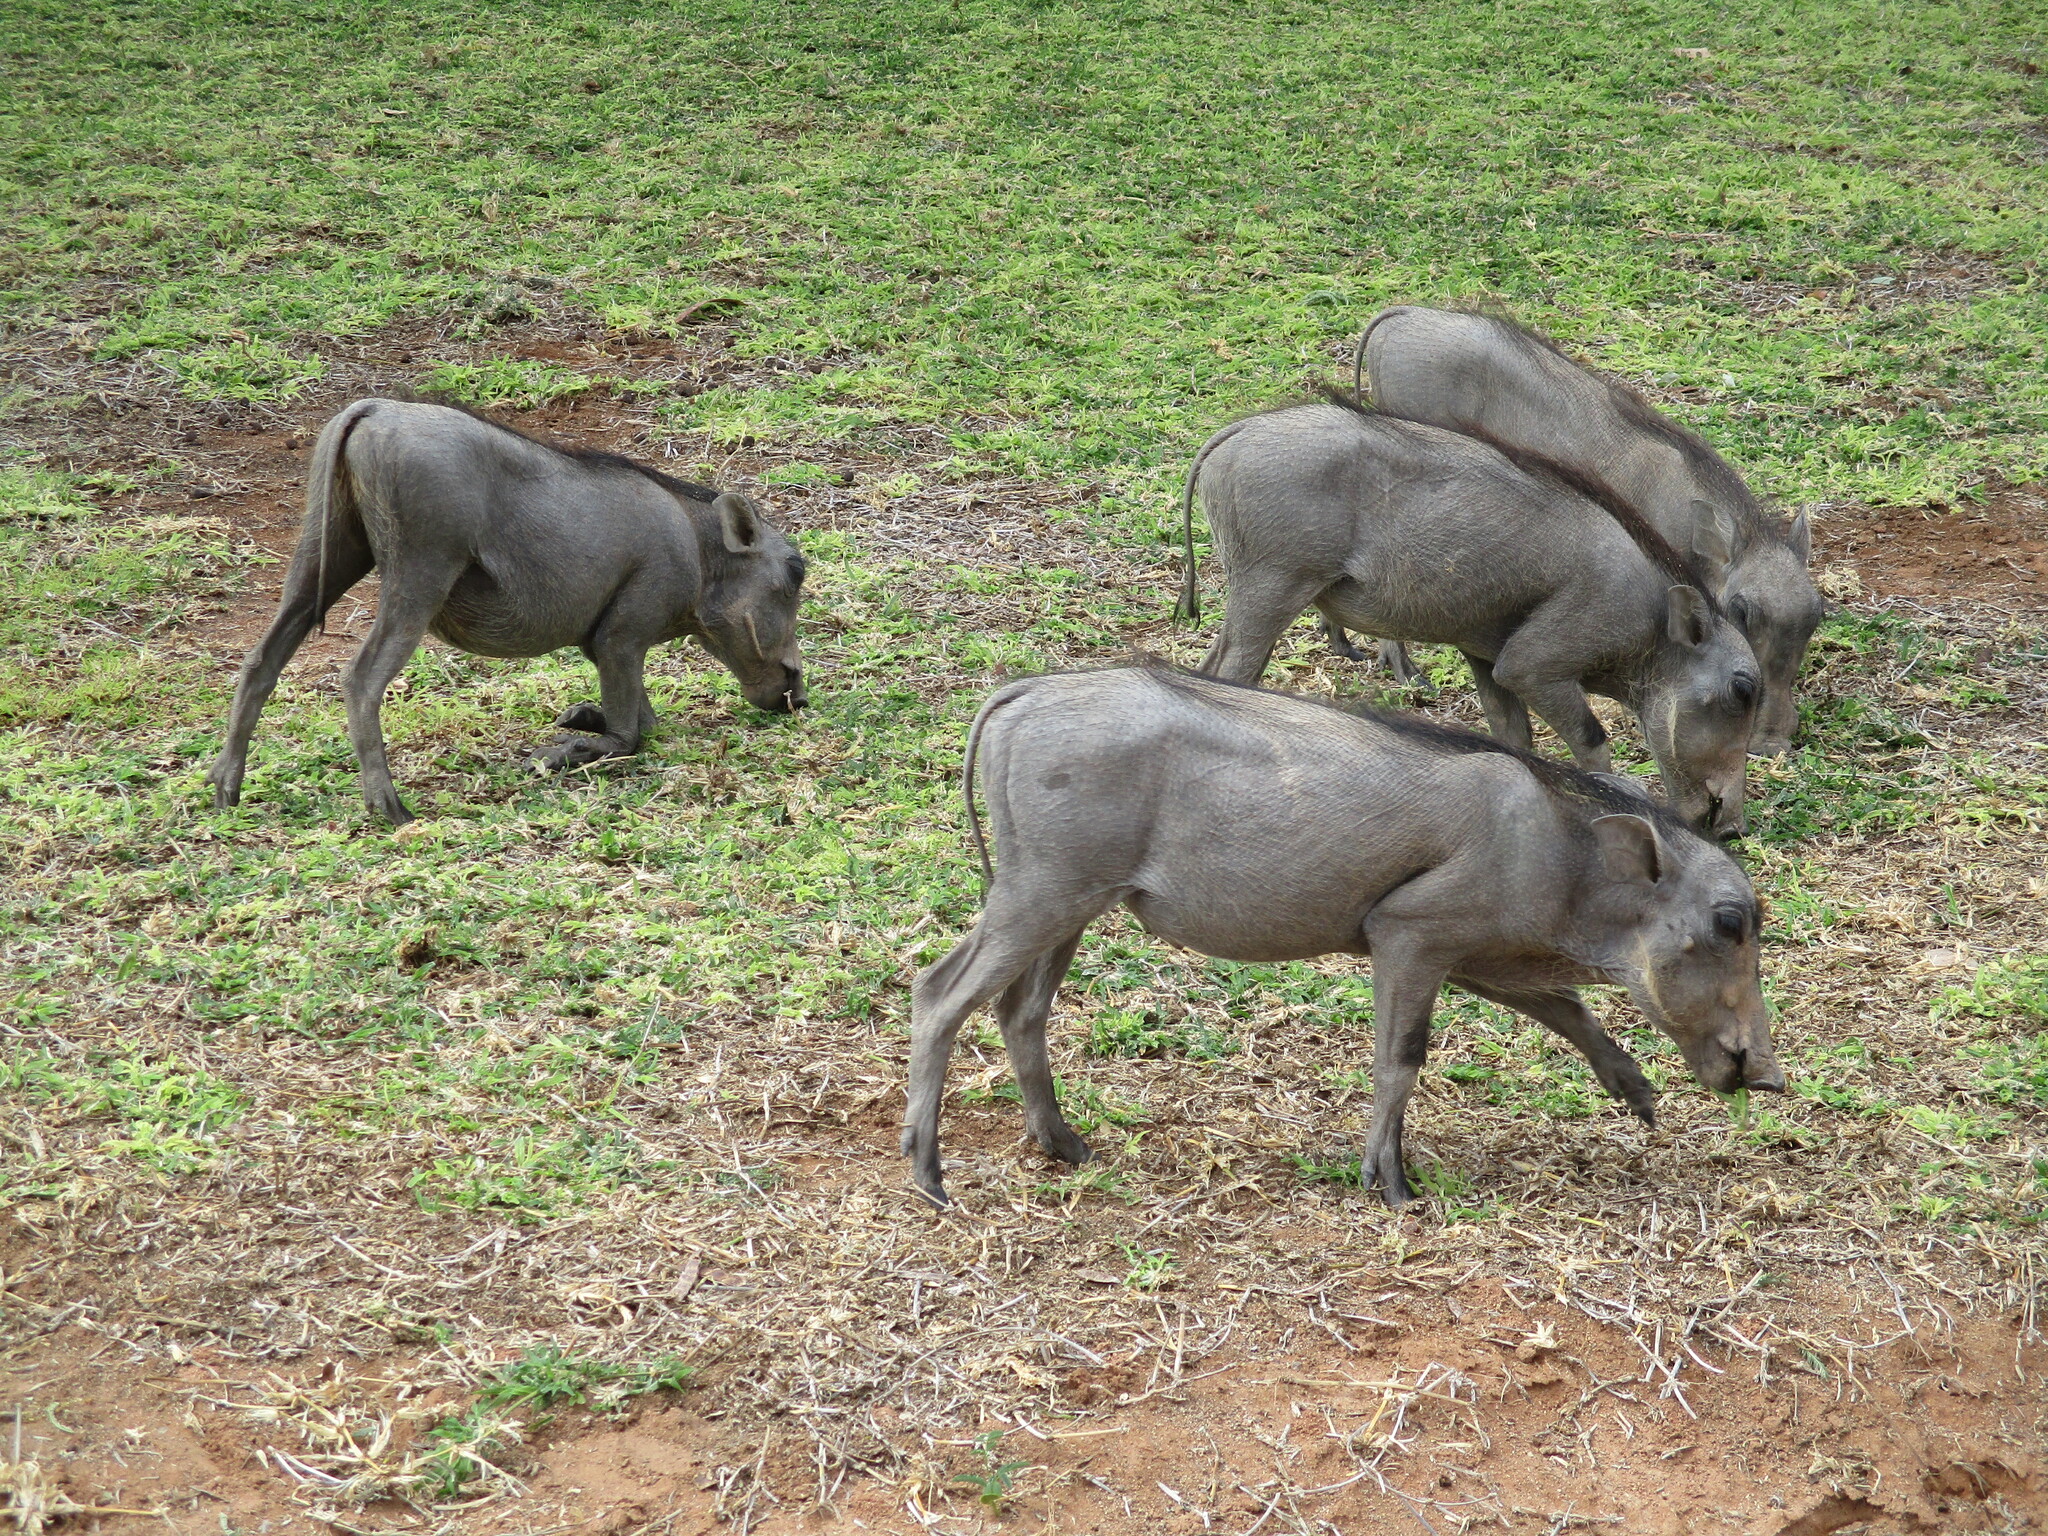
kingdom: Animalia
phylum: Chordata
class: Mammalia
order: Artiodactyla
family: Suidae
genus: Phacochoerus
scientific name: Phacochoerus africanus
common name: Common warthog
